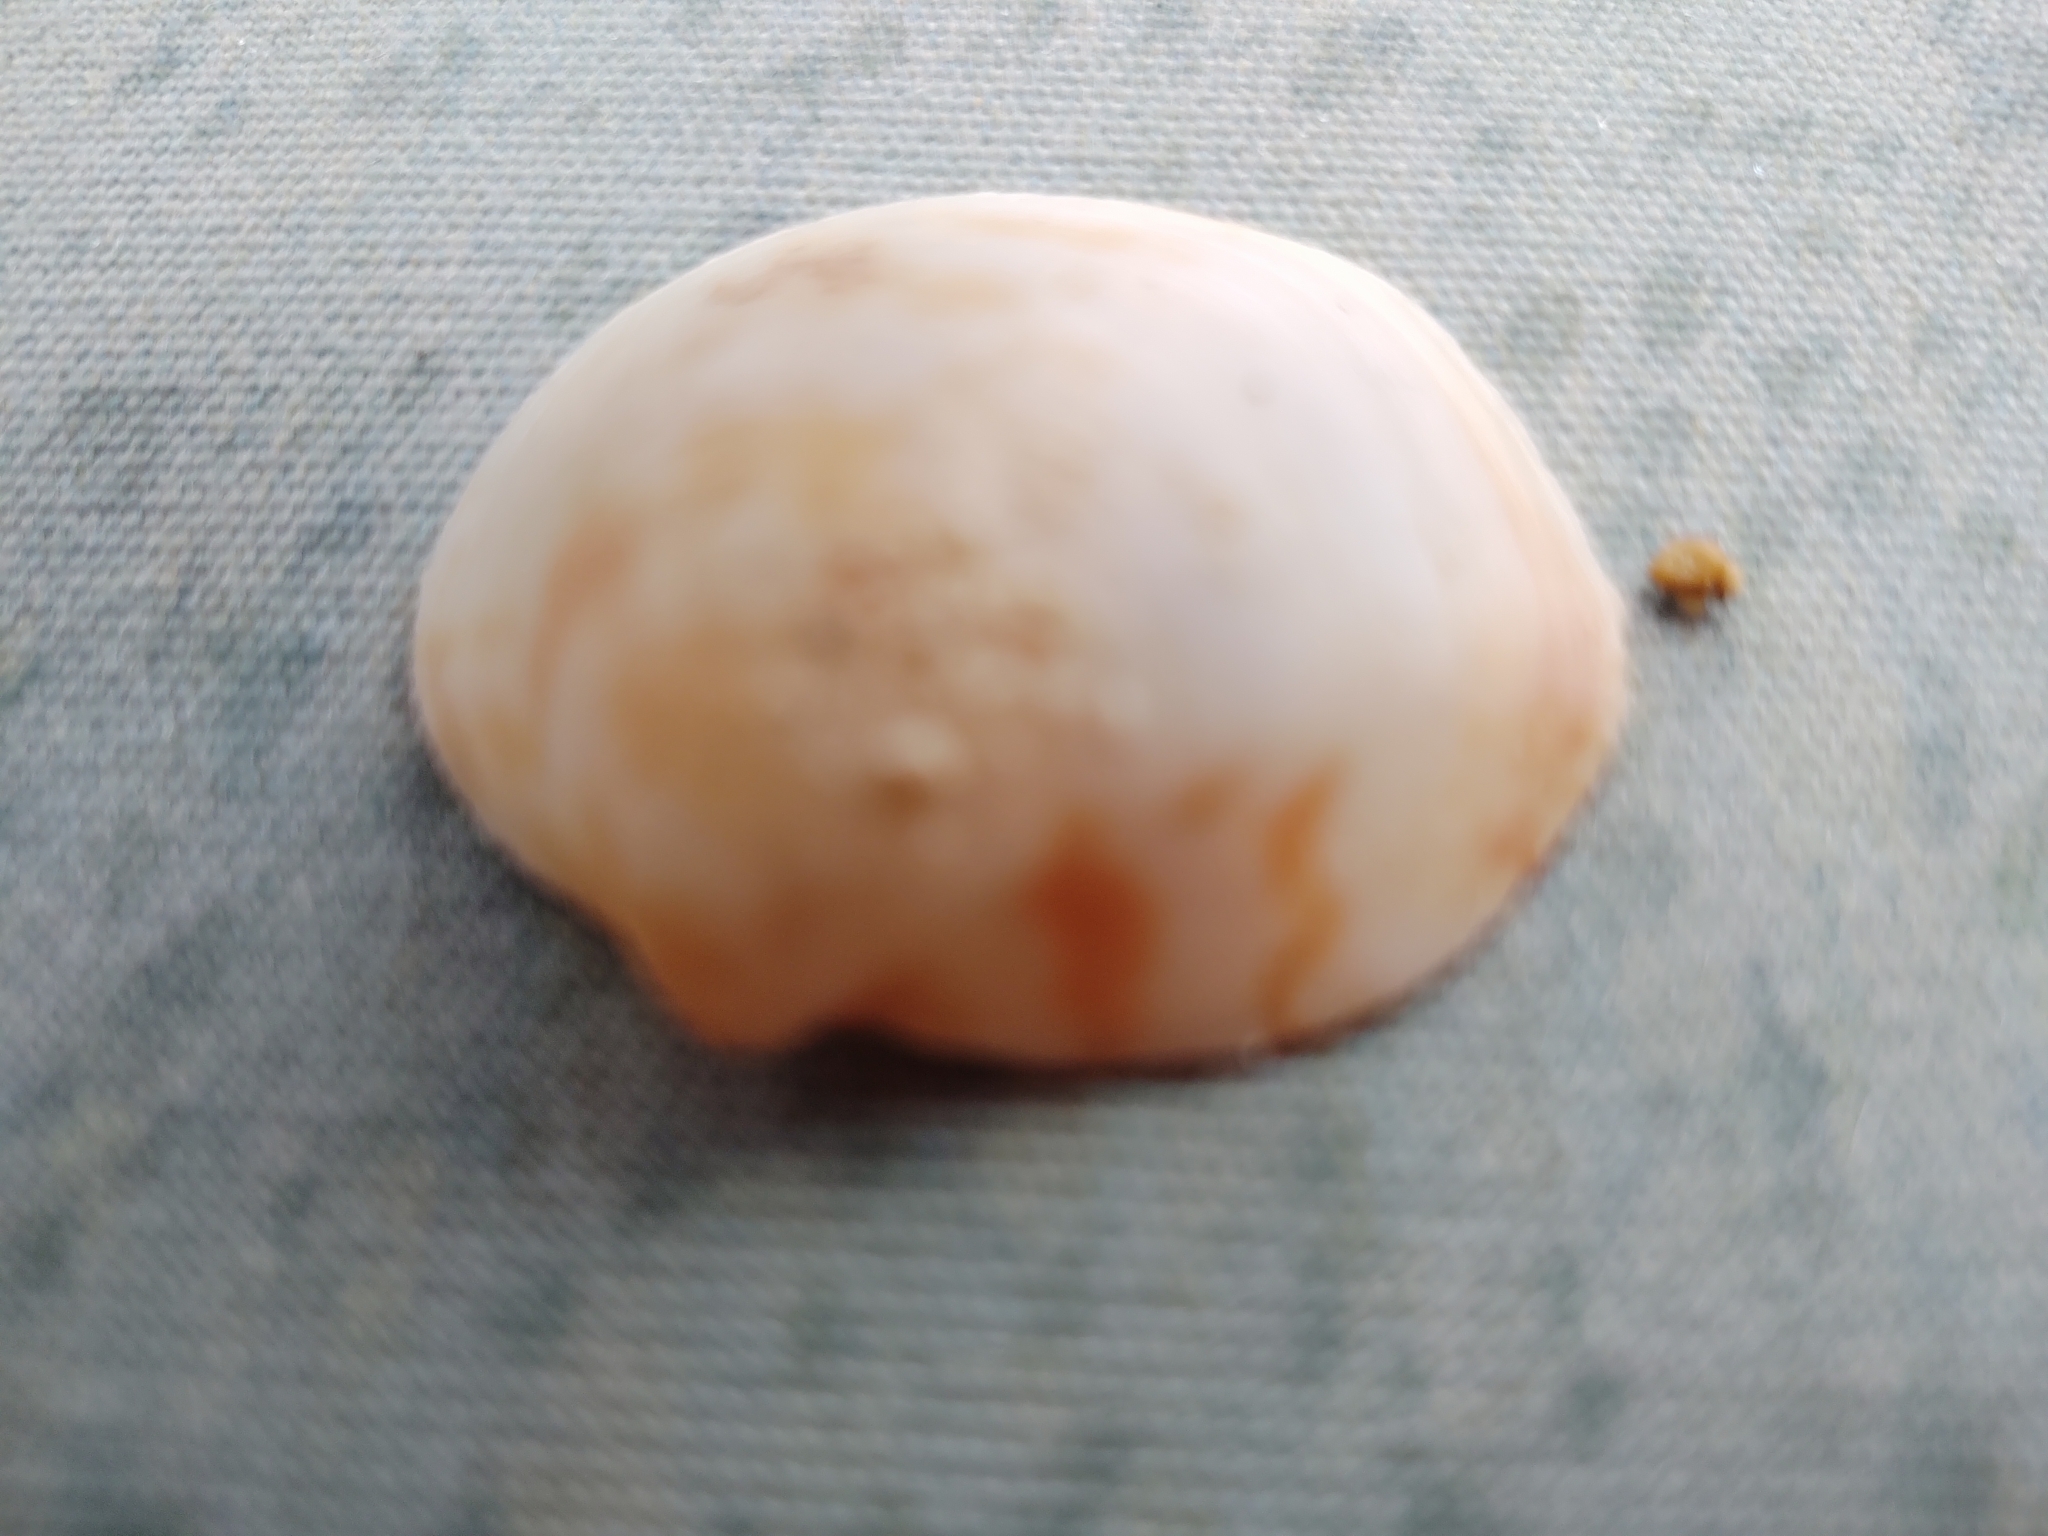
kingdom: Animalia
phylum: Mollusca
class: Bivalvia
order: Arcida
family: Glycymerididae
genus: Glycymeris
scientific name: Glycymeris undata
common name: Atlantic bittersweet
